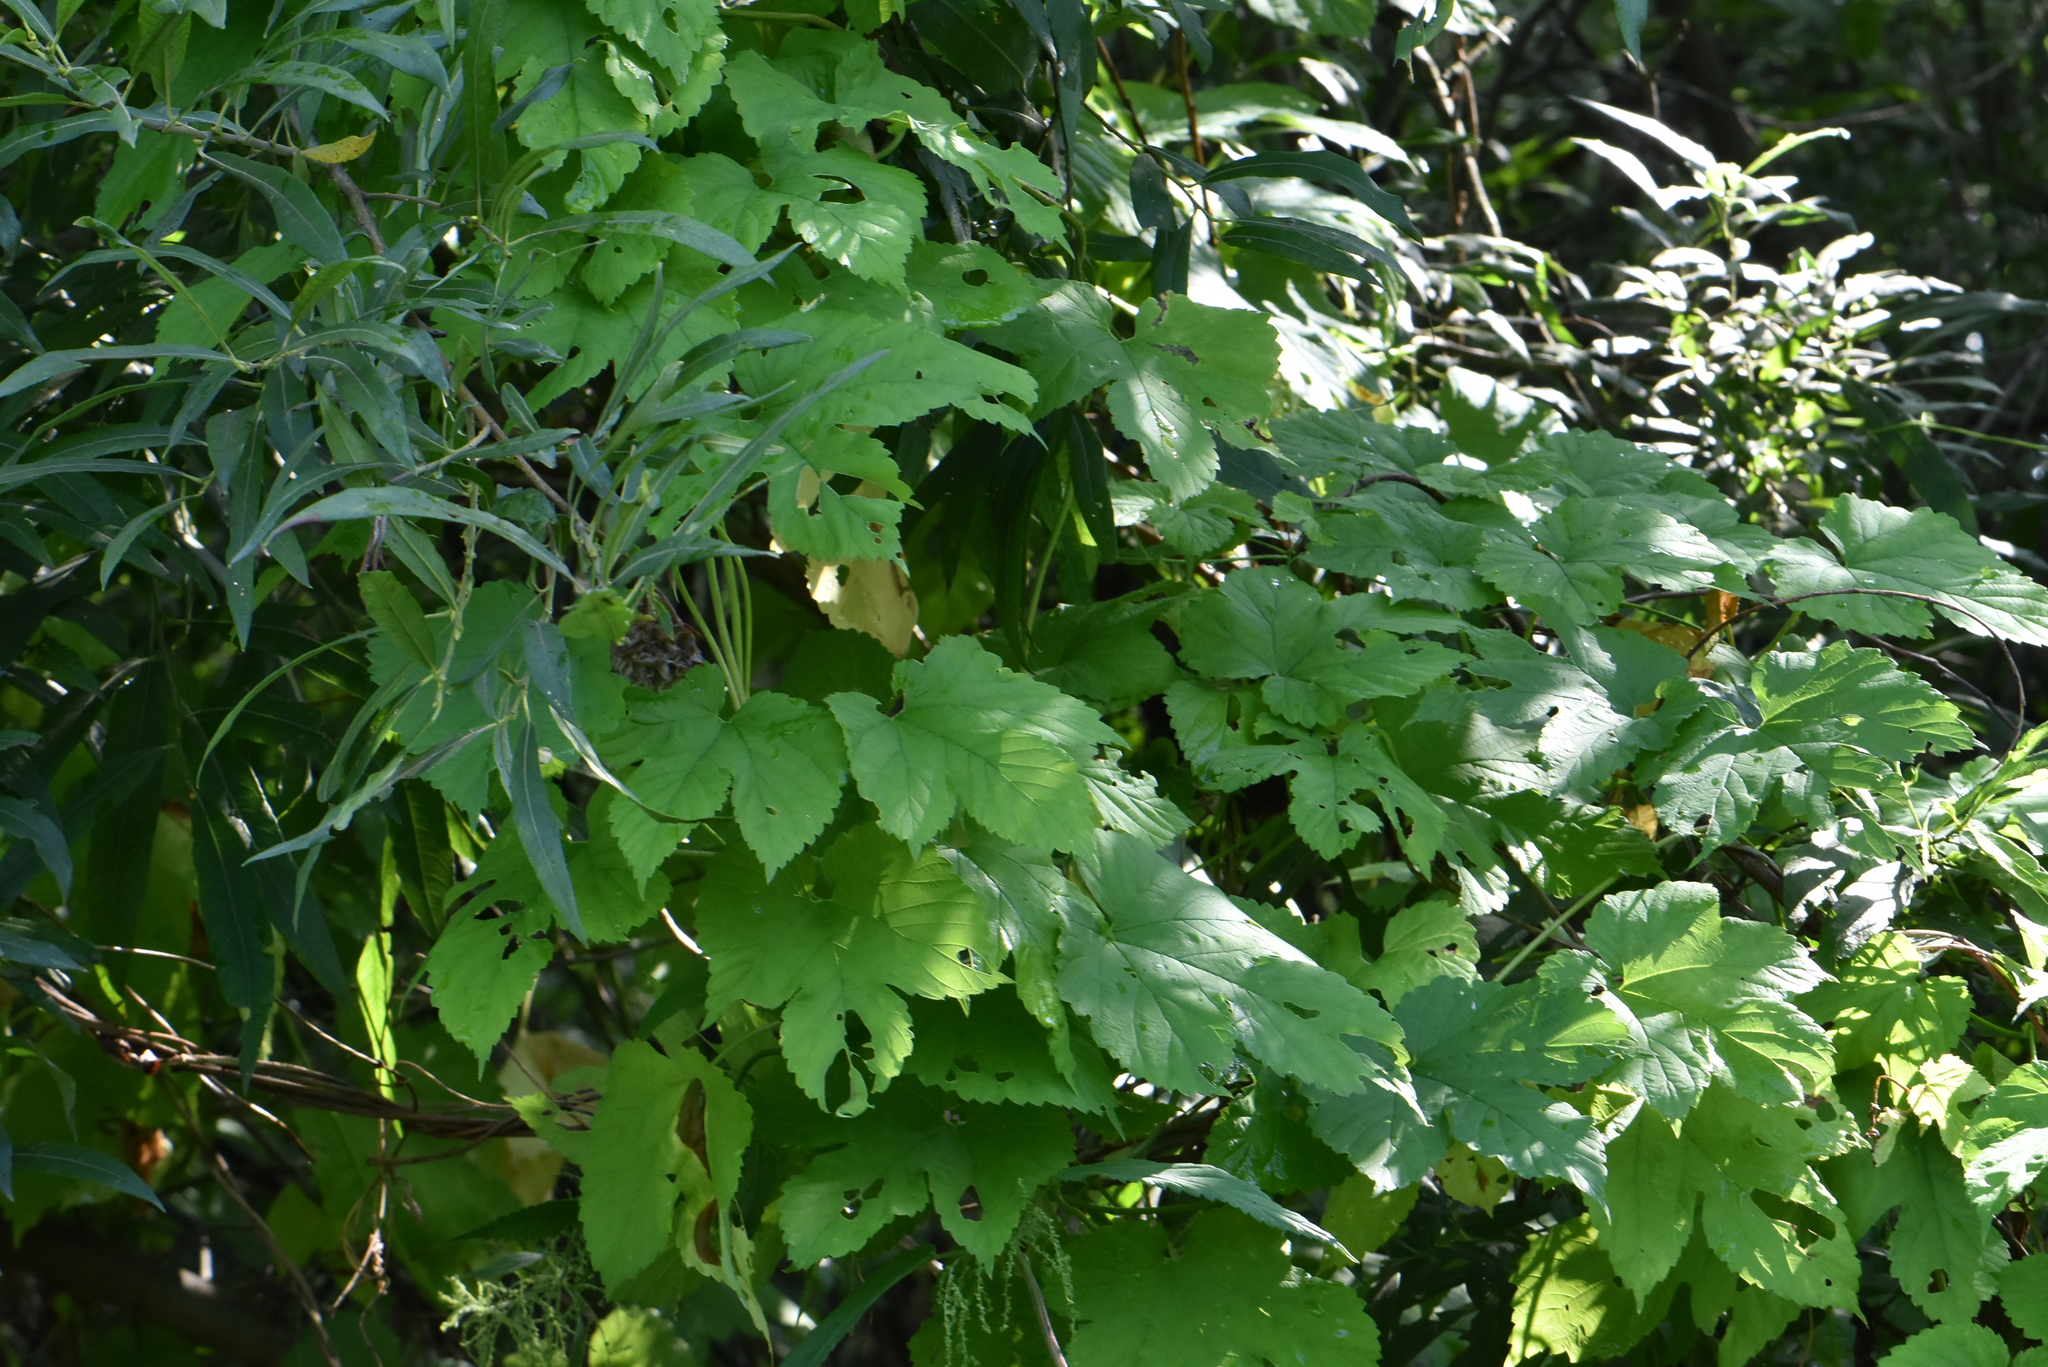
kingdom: Plantae
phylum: Tracheophyta
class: Magnoliopsida
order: Rosales
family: Cannabaceae
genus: Humulus
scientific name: Humulus lupulus
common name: Hop
